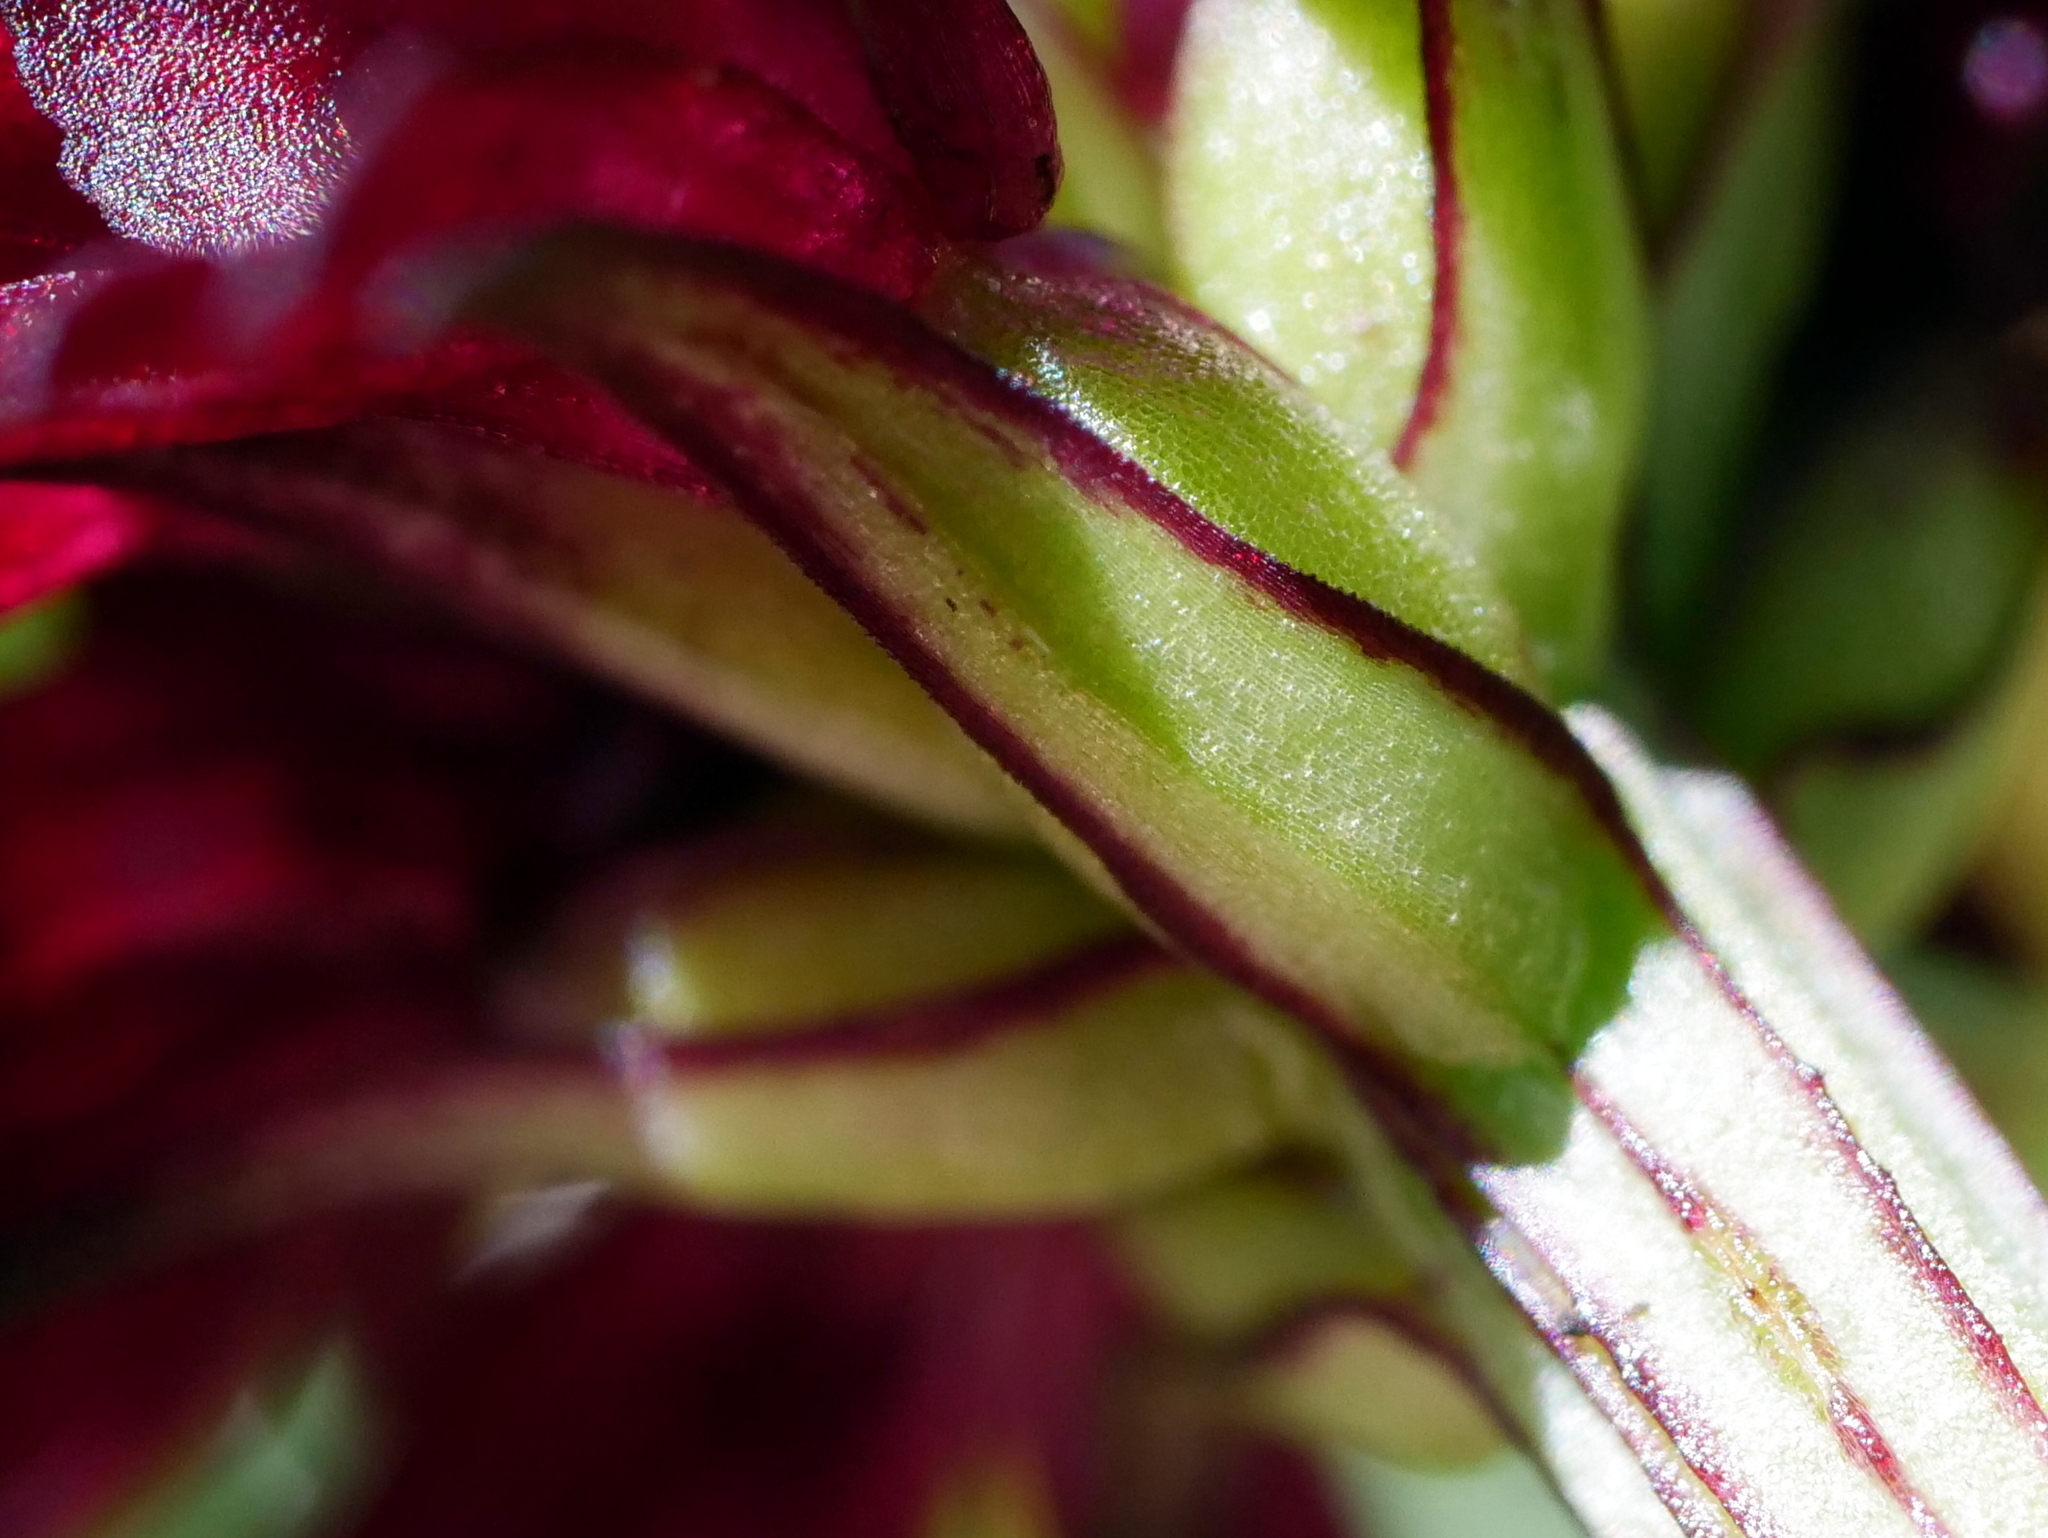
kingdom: Plantae
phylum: Tracheophyta
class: Liliopsida
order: Asparagales
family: Orchidaceae
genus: Gymnadenia
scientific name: Gymnadenia austriaca
